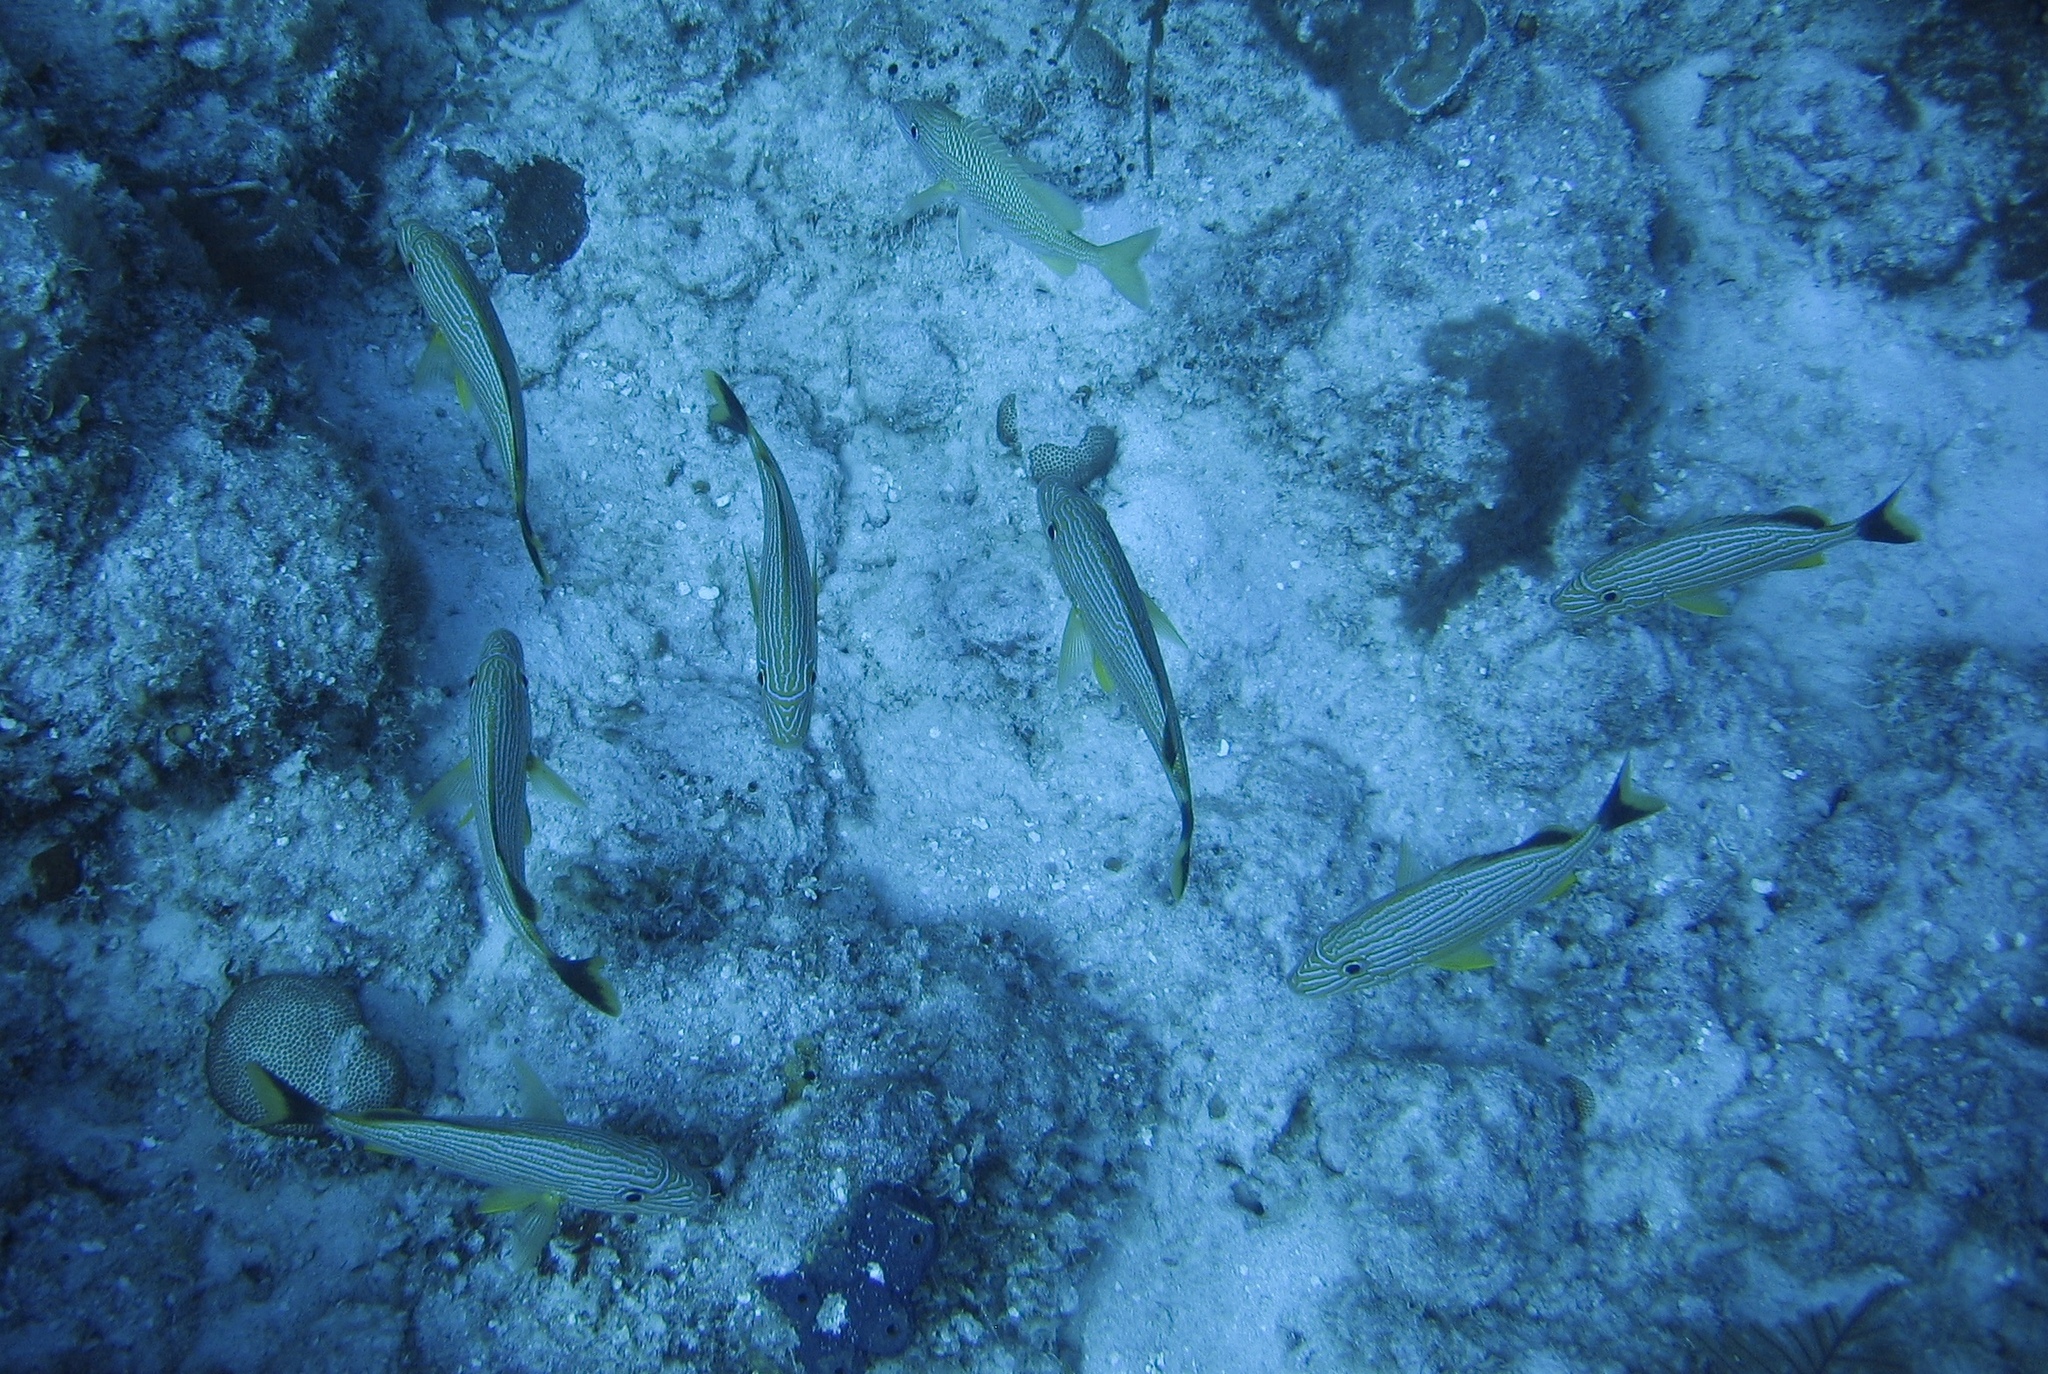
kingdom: Animalia
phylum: Chordata
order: Perciformes
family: Haemulidae
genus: Haemulon
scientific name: Haemulon sciurus
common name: Bluestriped grunt
